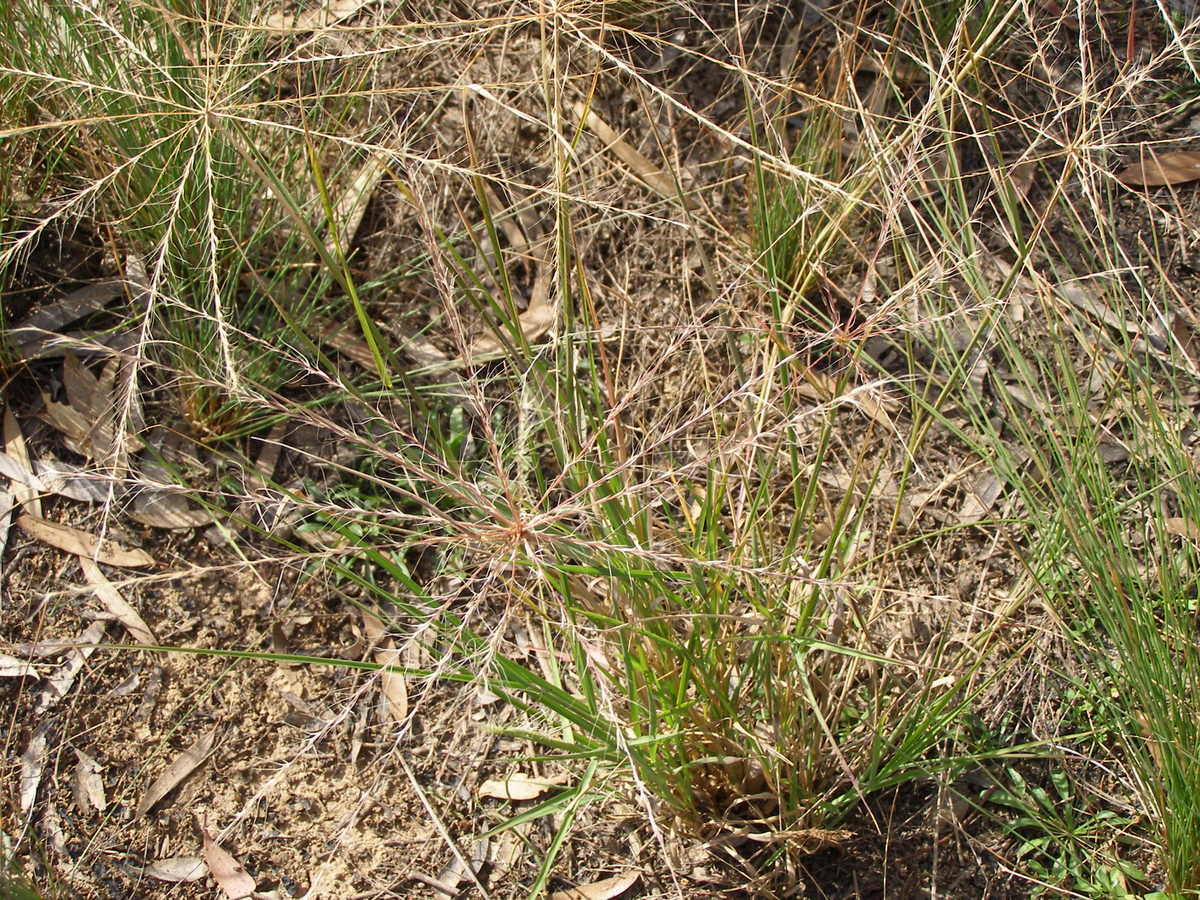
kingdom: Plantae
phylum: Tracheophyta
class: Liliopsida
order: Poales
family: Poaceae
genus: Enteropogon
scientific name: Enteropogon acicularis
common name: Curly windmill grass
